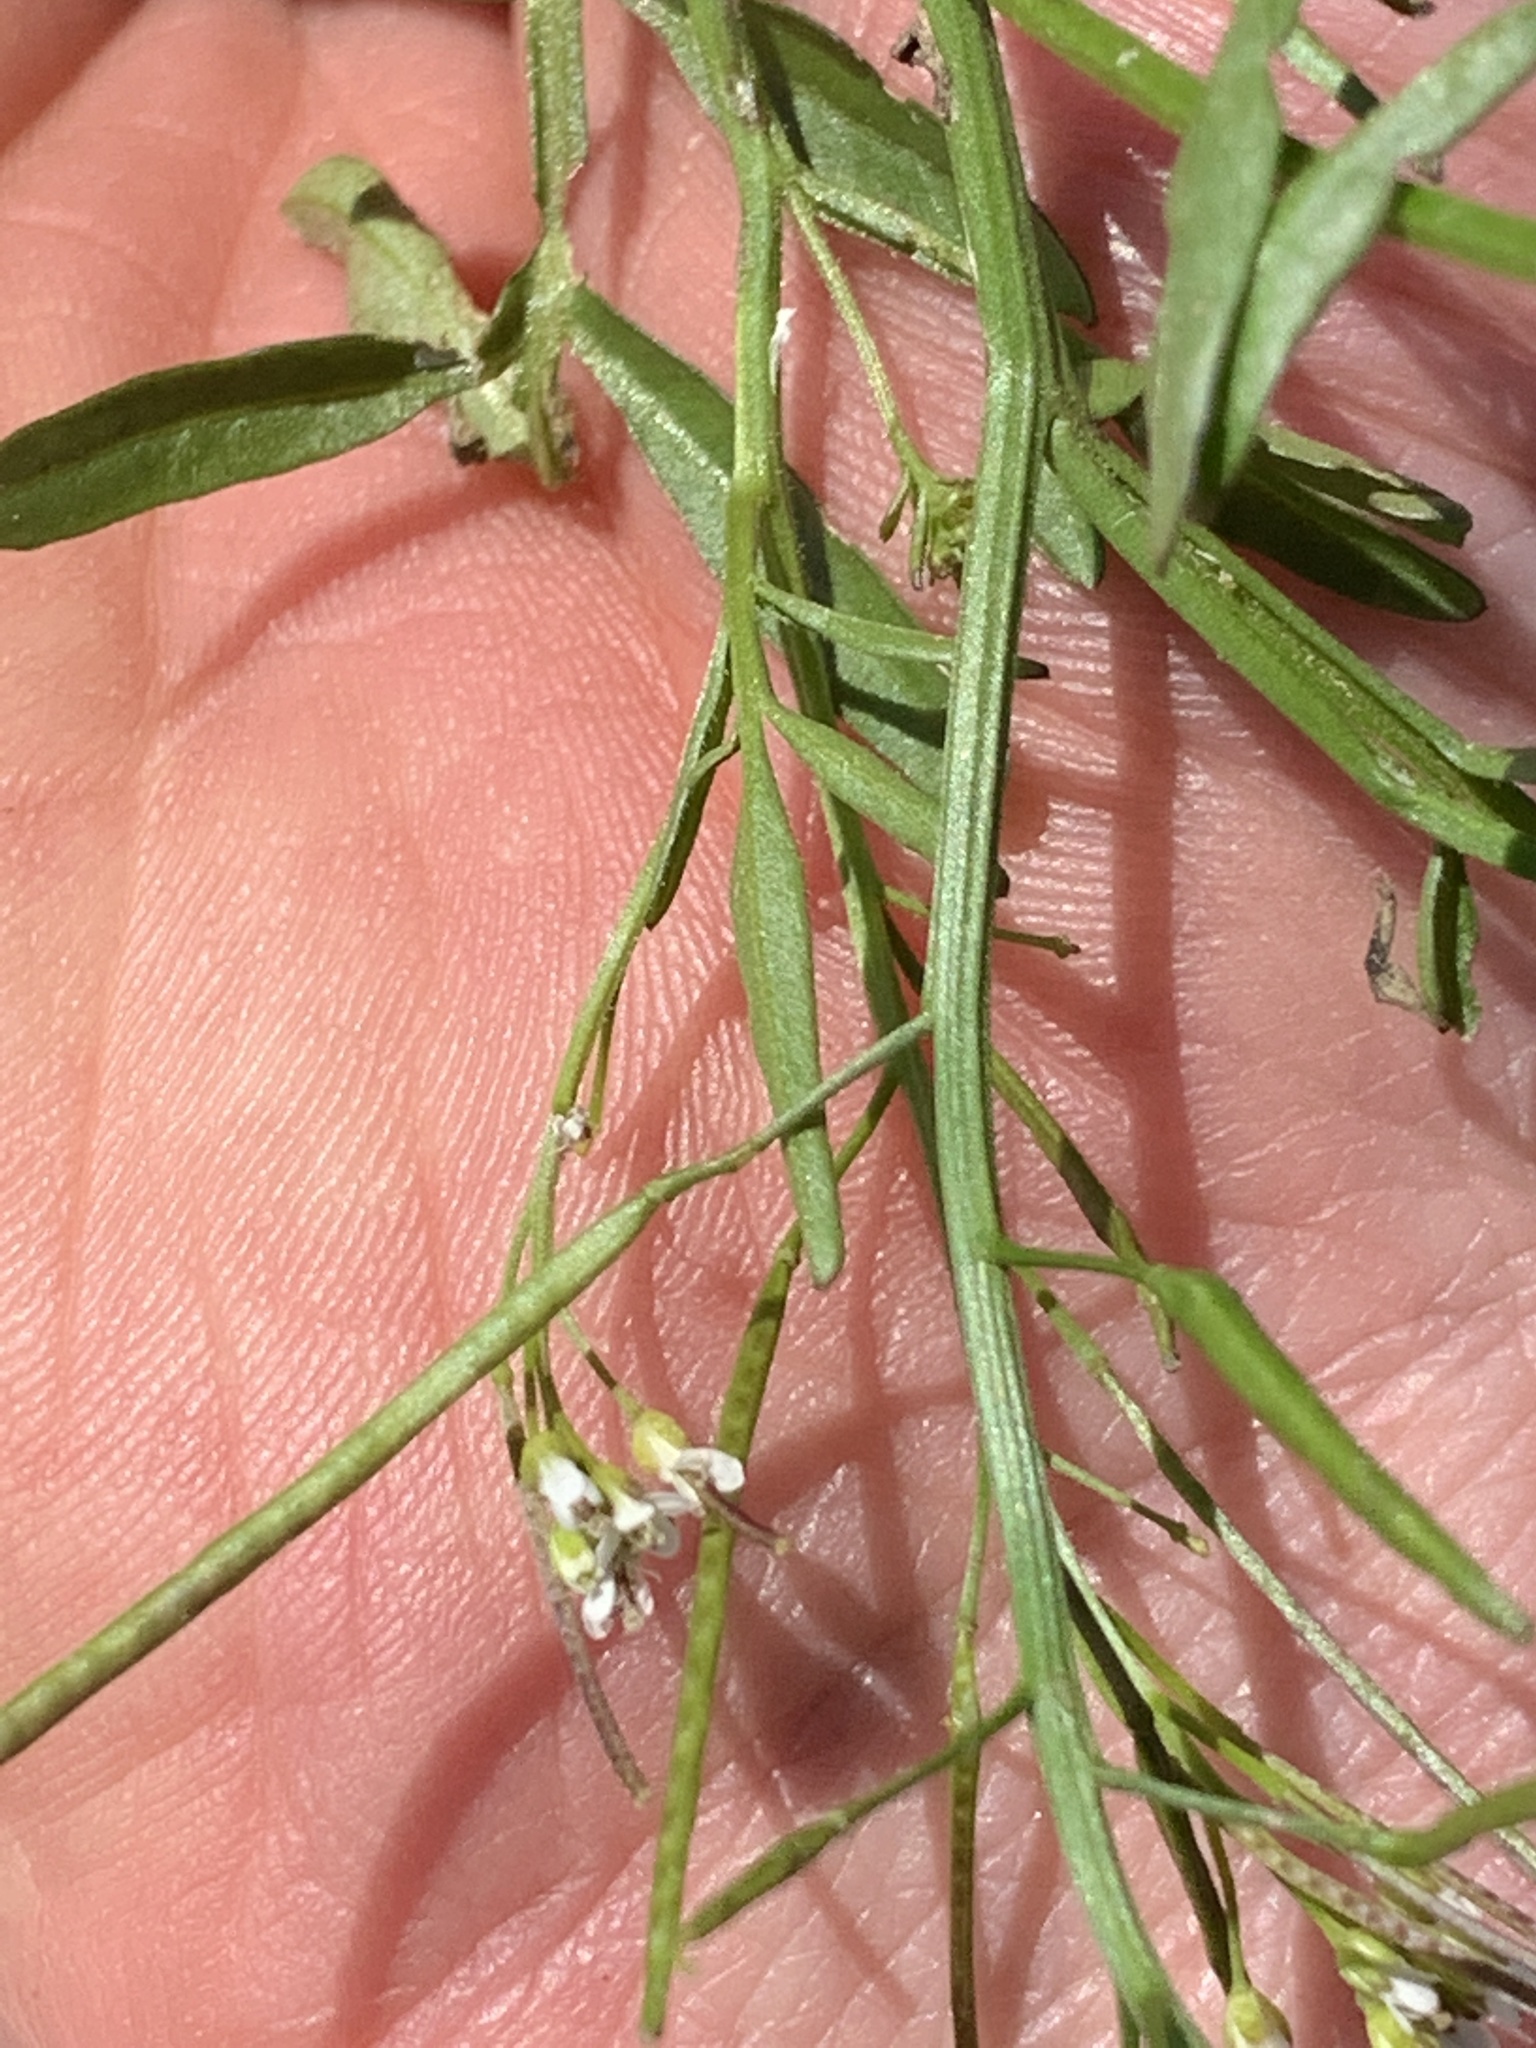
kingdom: Plantae
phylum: Tracheophyta
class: Magnoliopsida
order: Brassicales
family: Brassicaceae
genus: Cardamine
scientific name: Cardamine pensylvanica
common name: Pennsylvania bittercress
